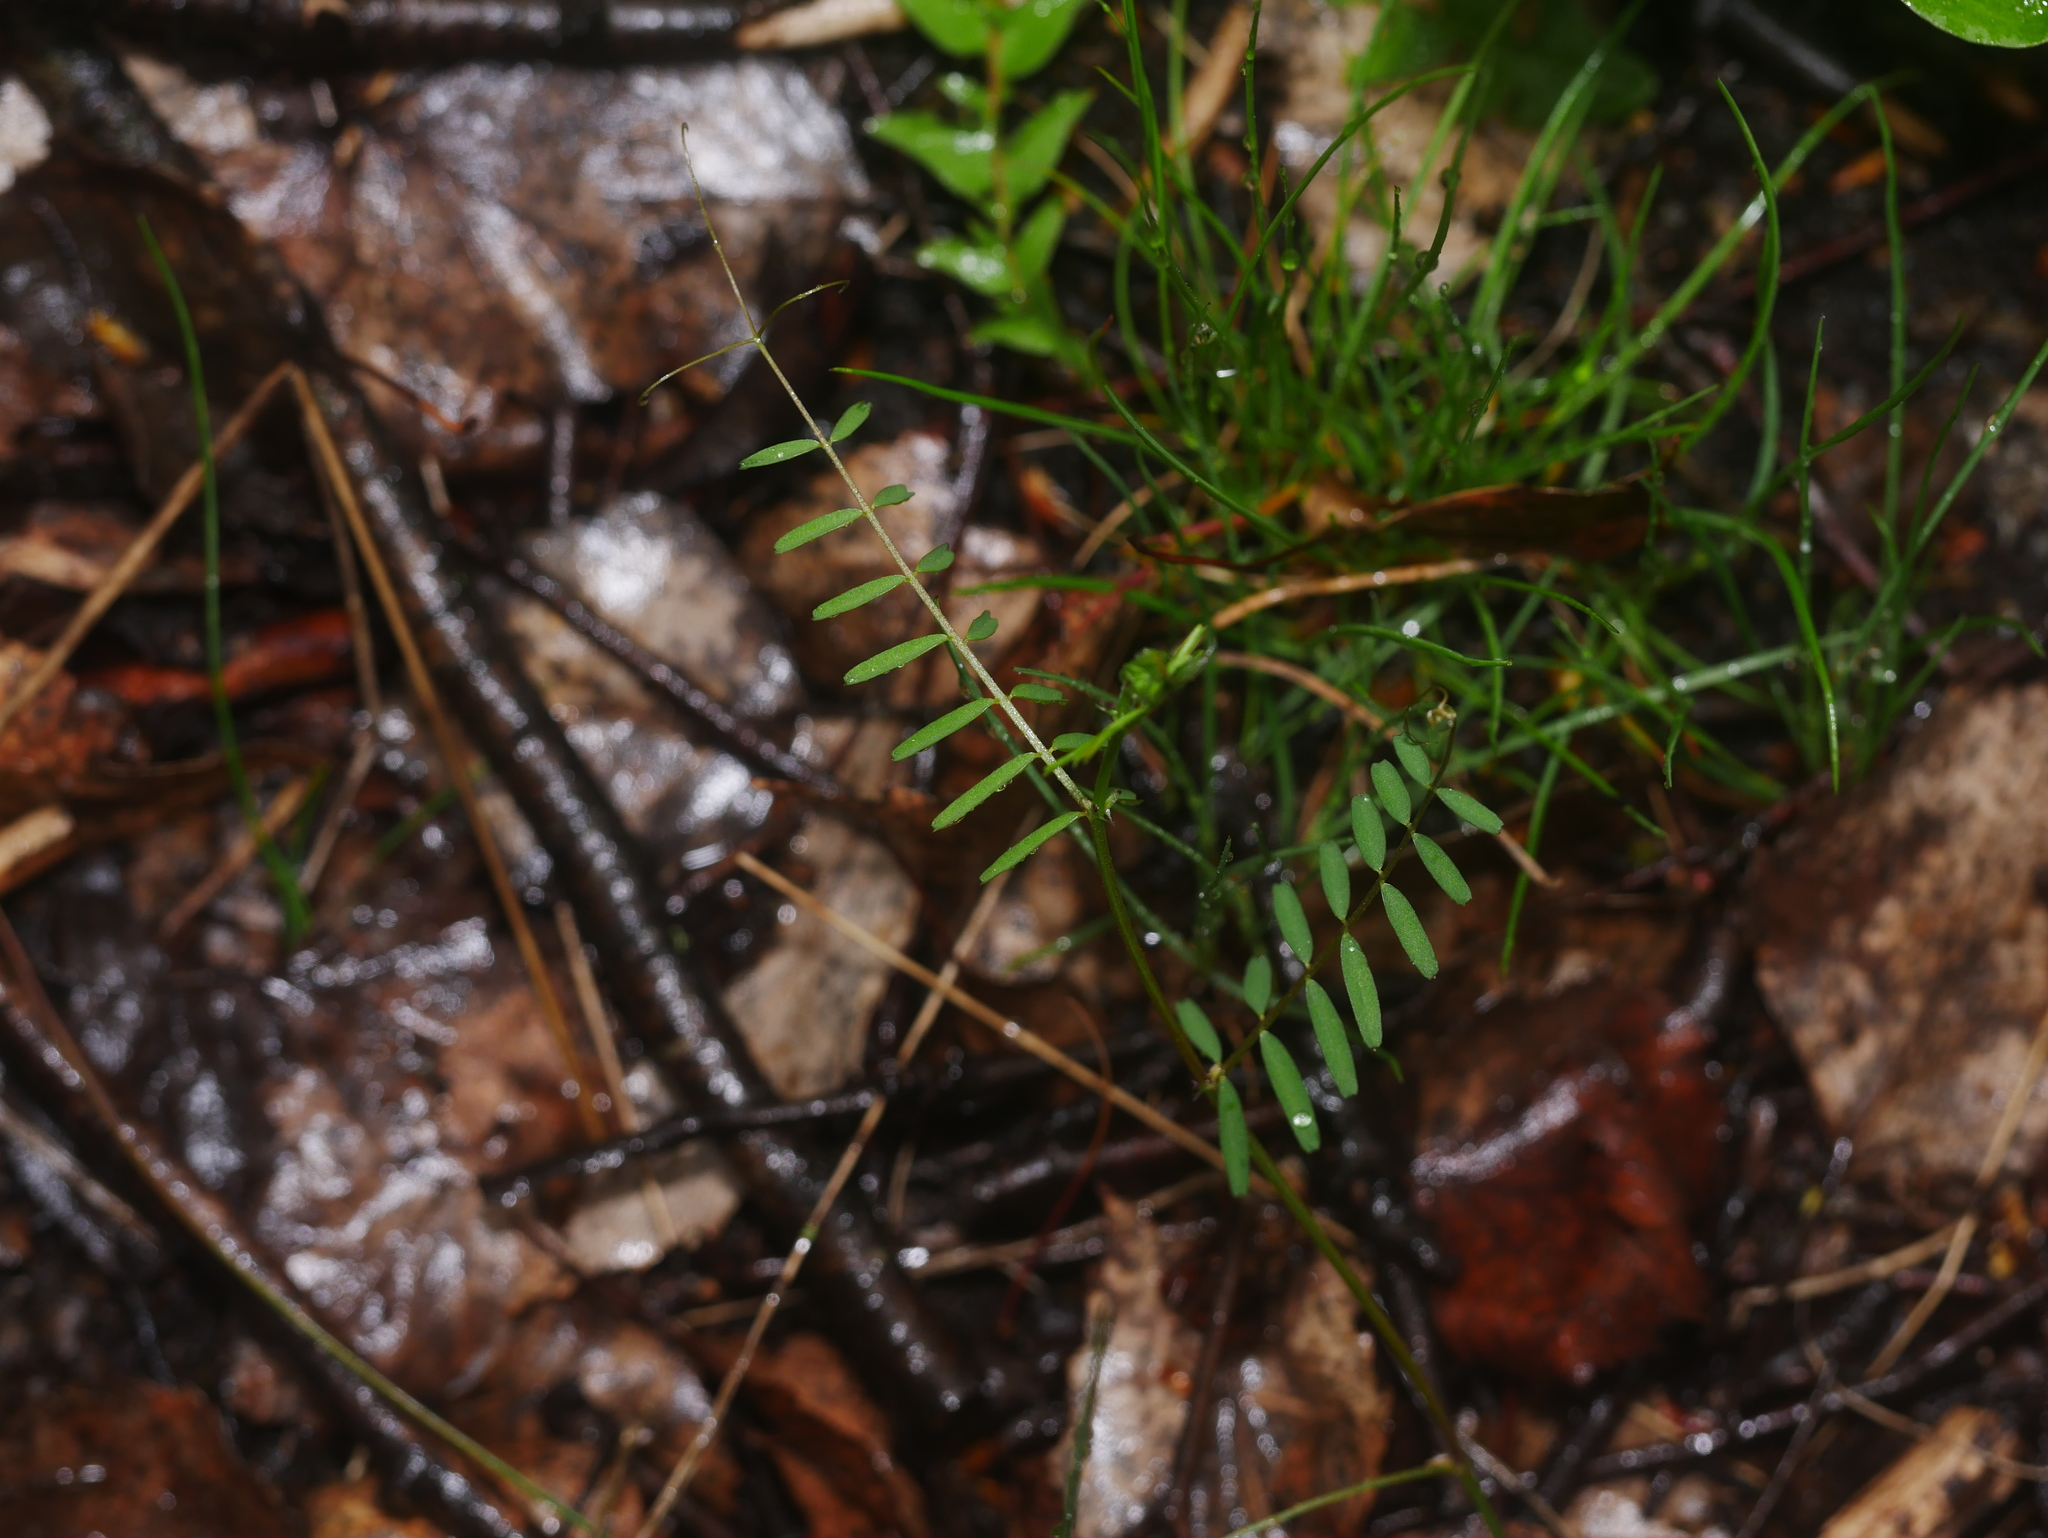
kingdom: Plantae
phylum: Tracheophyta
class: Magnoliopsida
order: Fabales
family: Fabaceae
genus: Vicia
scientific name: Vicia hirsuta
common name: Tiny vetch
